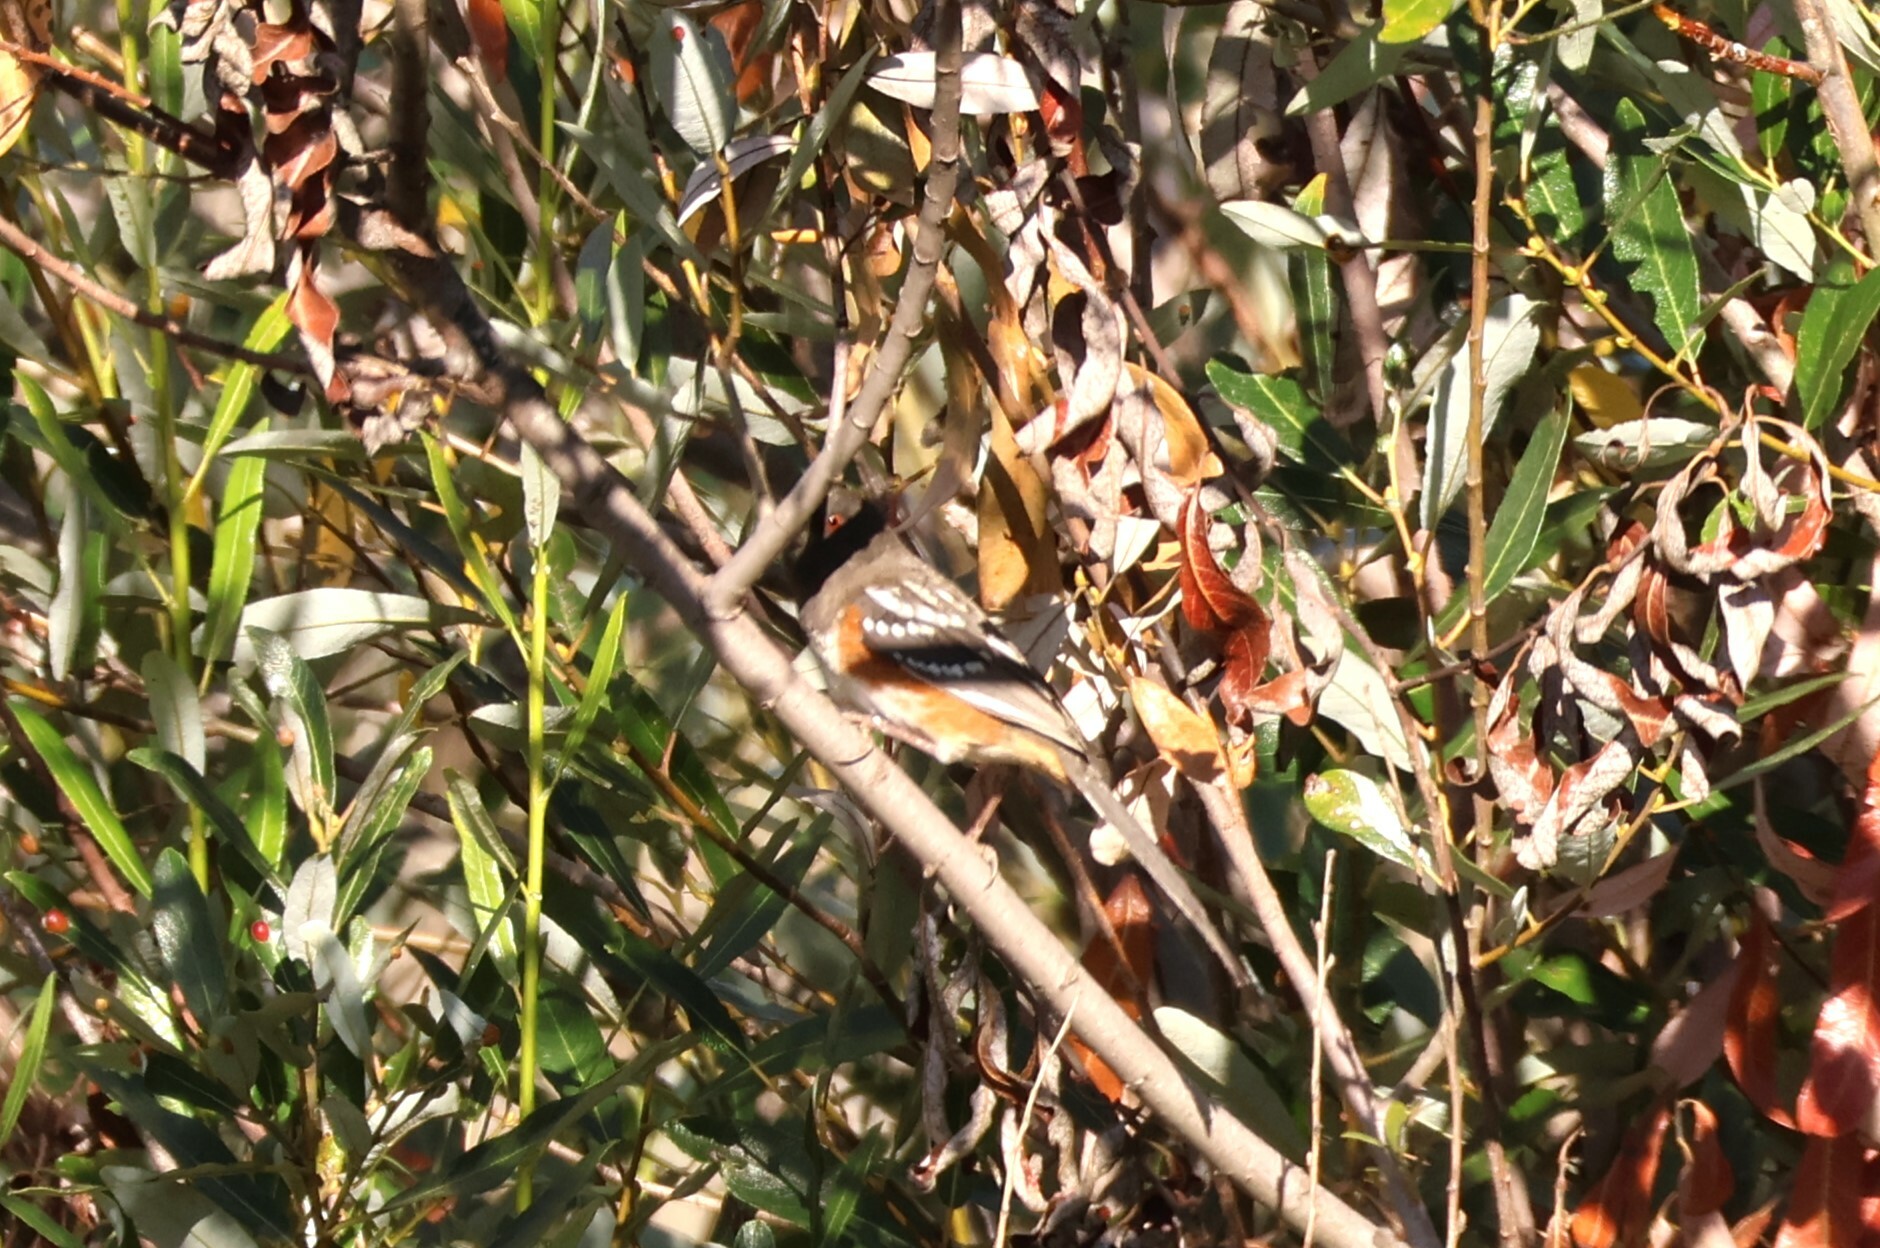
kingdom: Animalia
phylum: Chordata
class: Aves
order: Passeriformes
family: Passerellidae
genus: Pipilo
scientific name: Pipilo maculatus
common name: Spotted towhee
